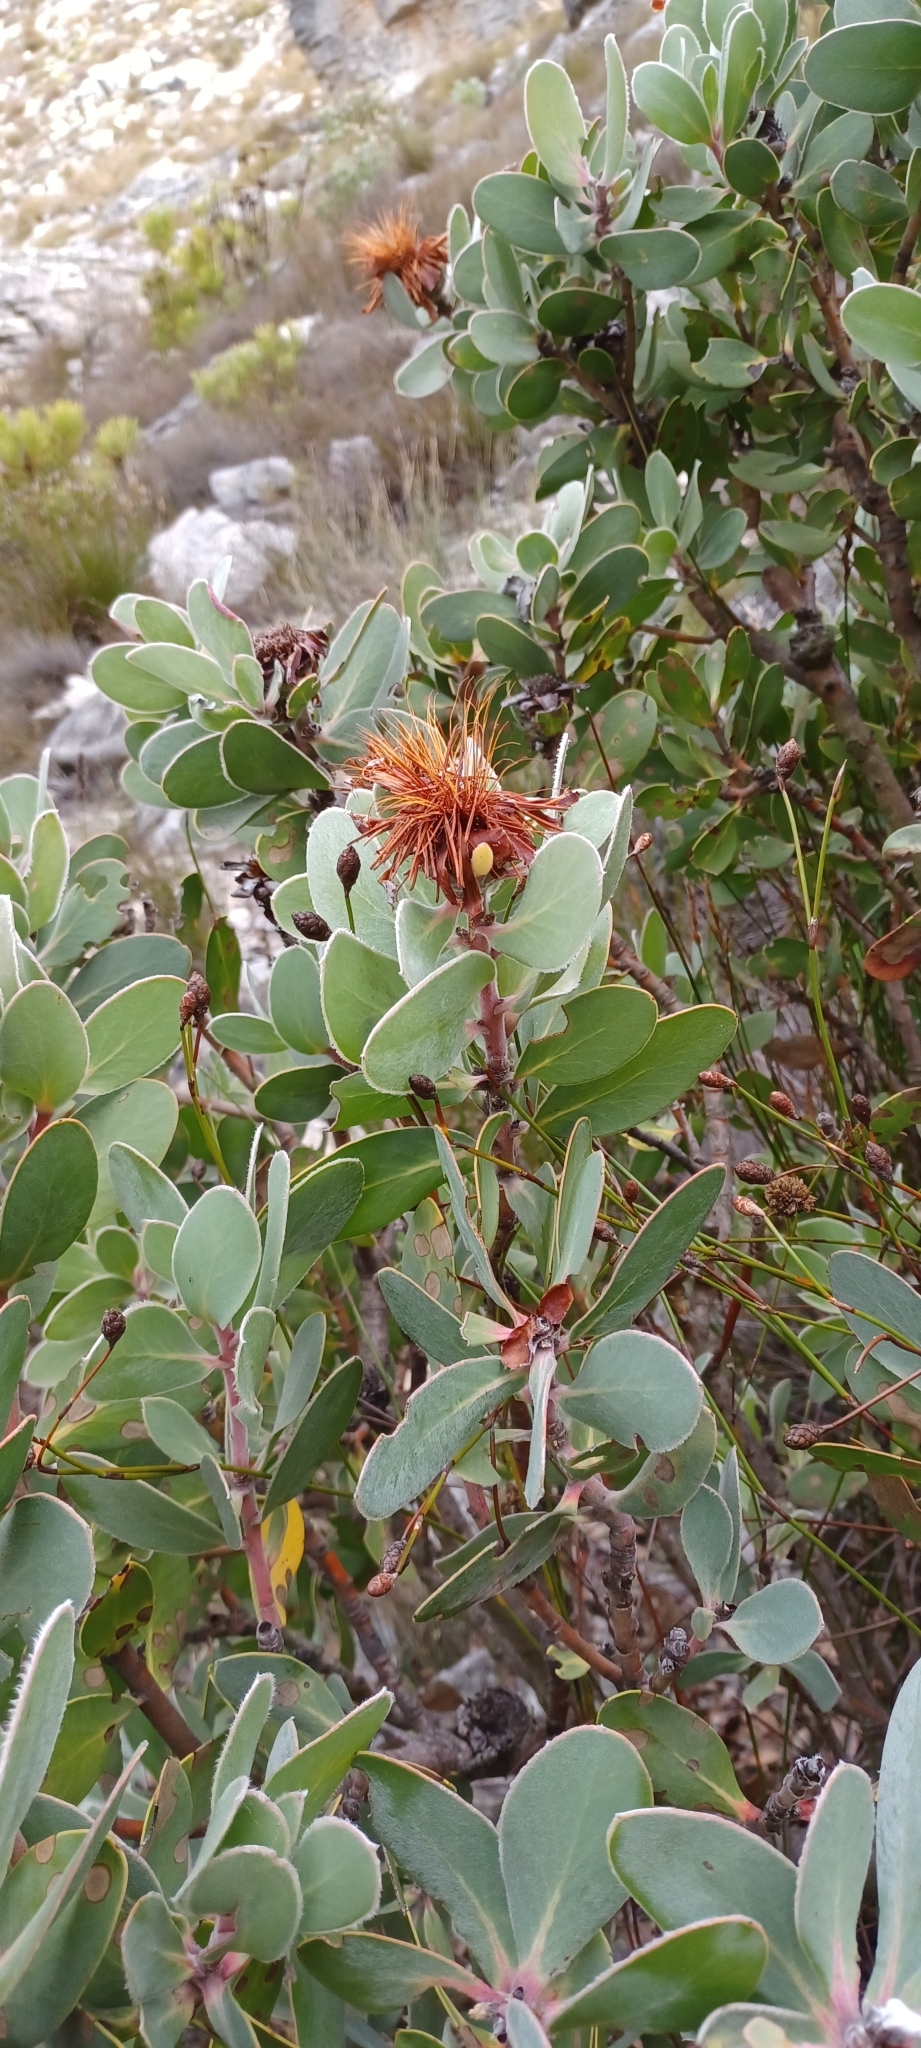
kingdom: Plantae
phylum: Tracheophyta
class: Magnoliopsida
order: Proteales
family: Proteaceae
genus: Protea
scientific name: Protea punctata
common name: Water sugarbush
